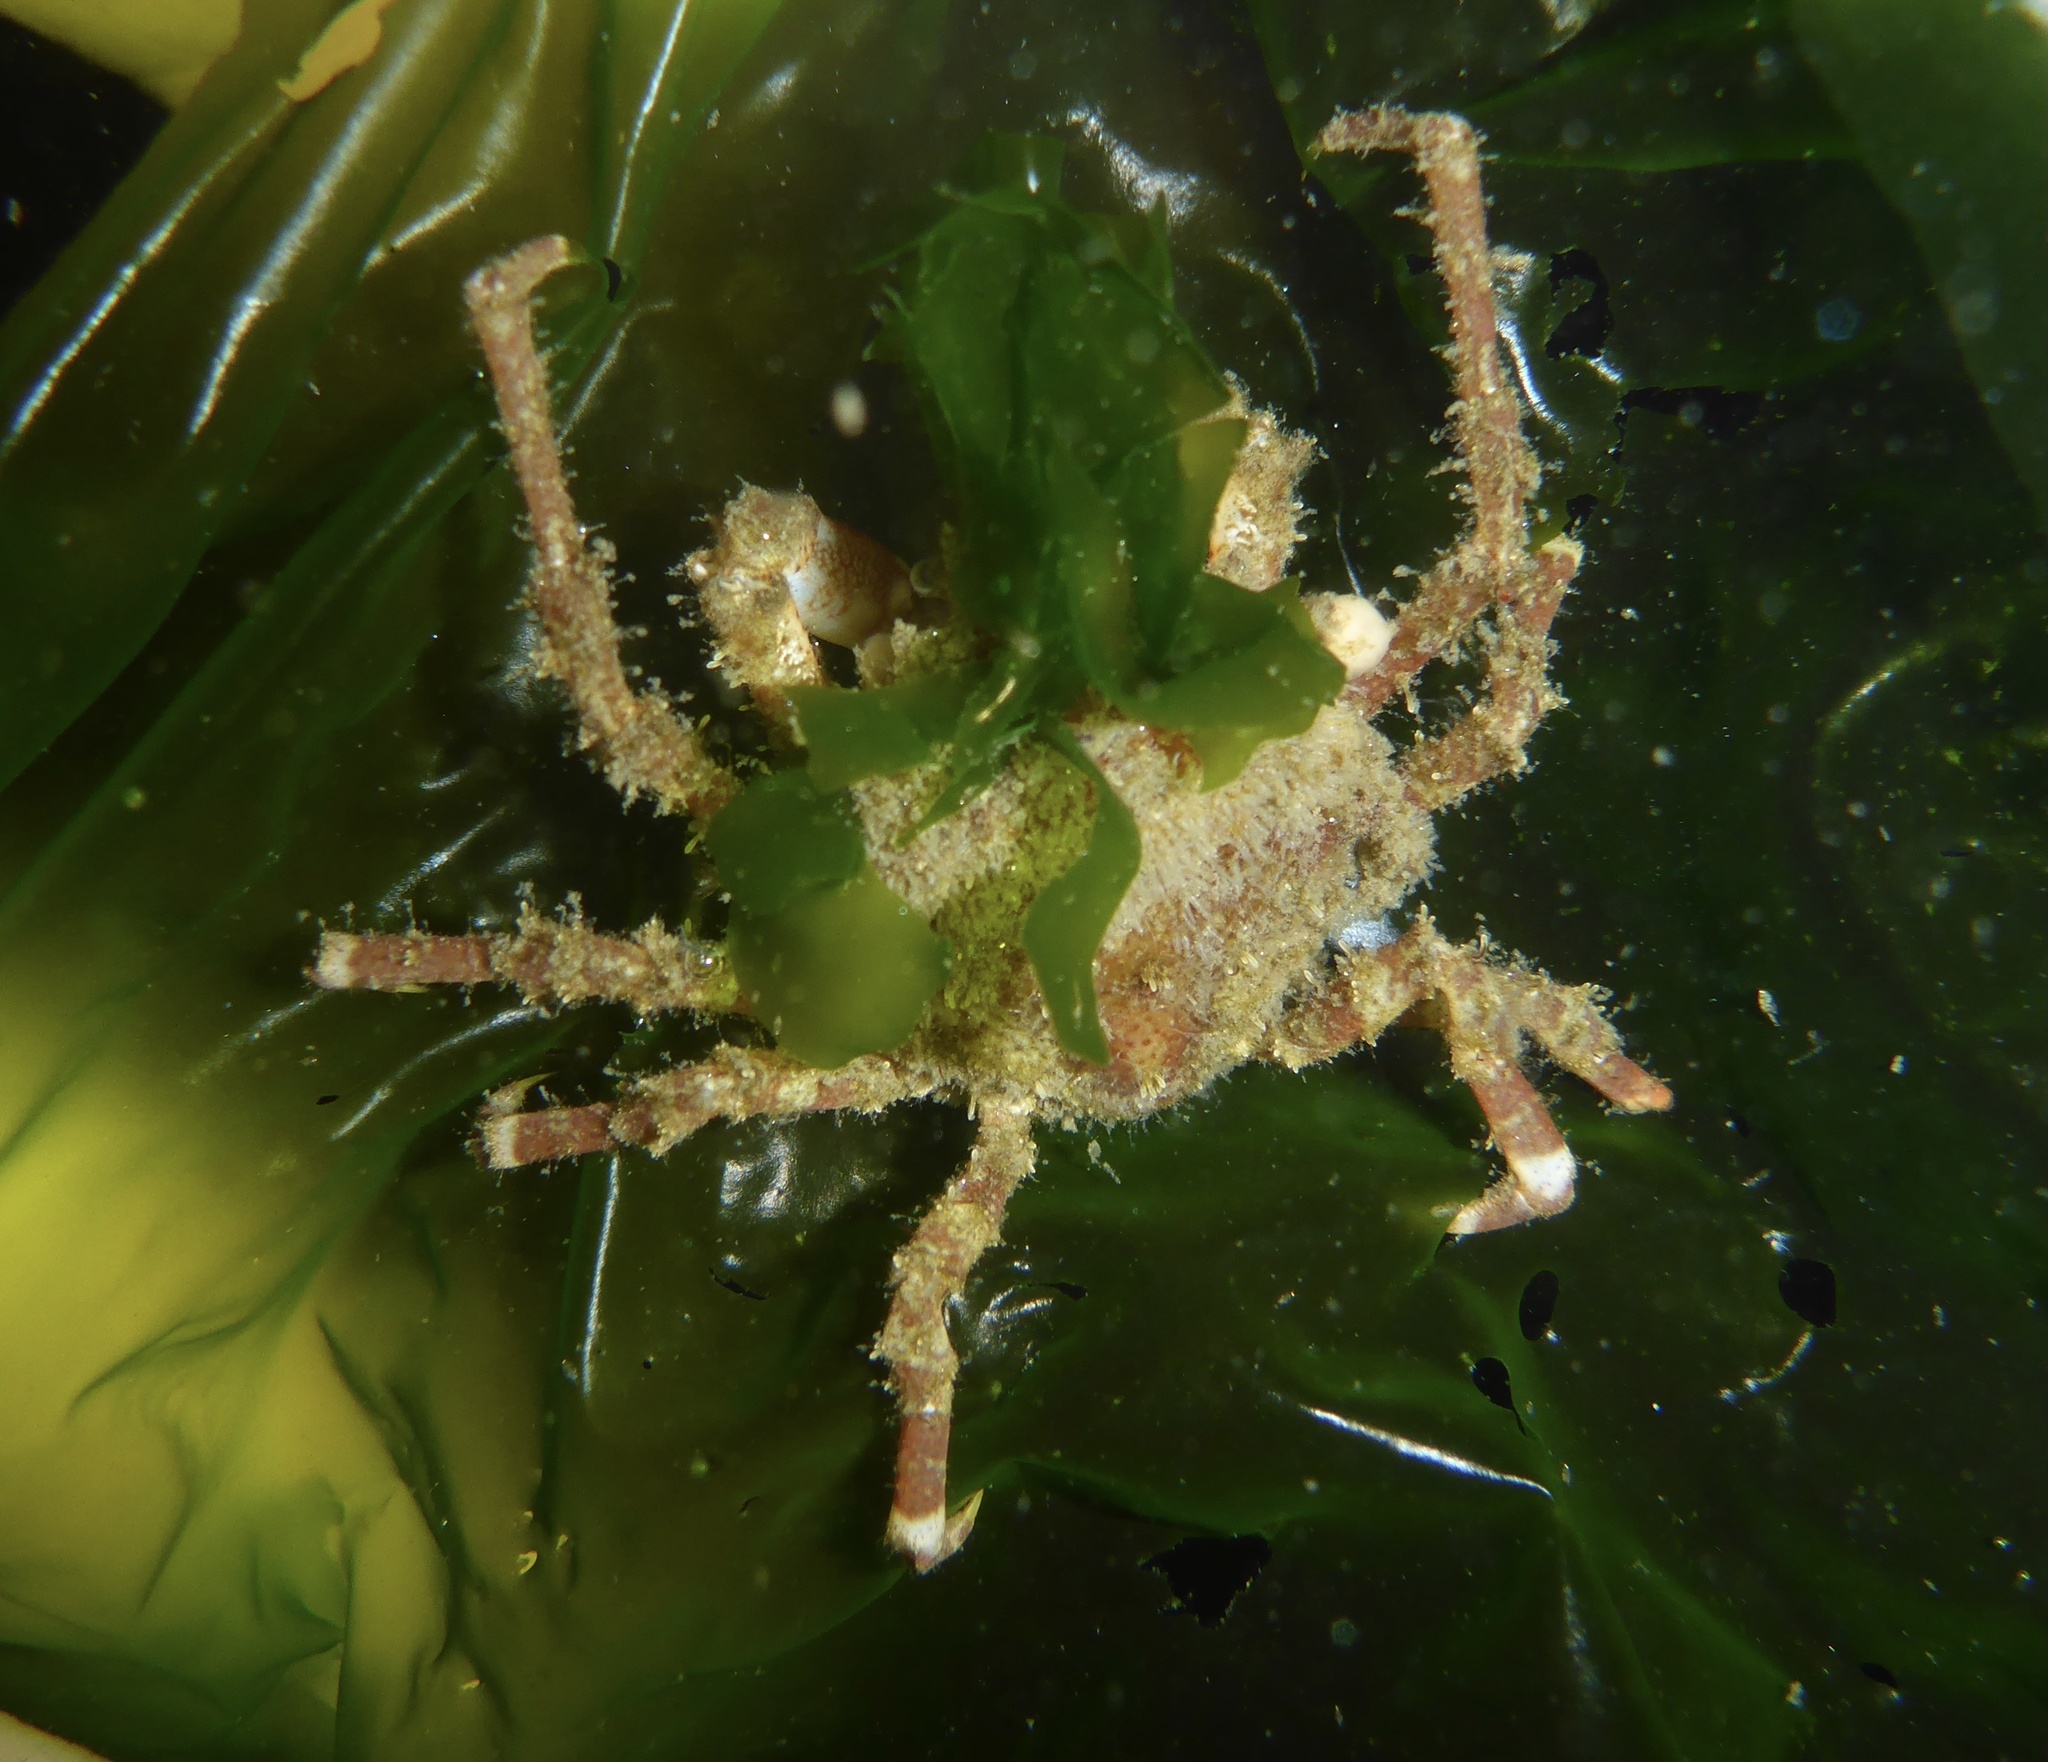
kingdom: Animalia
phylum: Arthropoda
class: Malacostraca
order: Decapoda
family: Epialtidae
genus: Pugettia
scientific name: Pugettia richii
